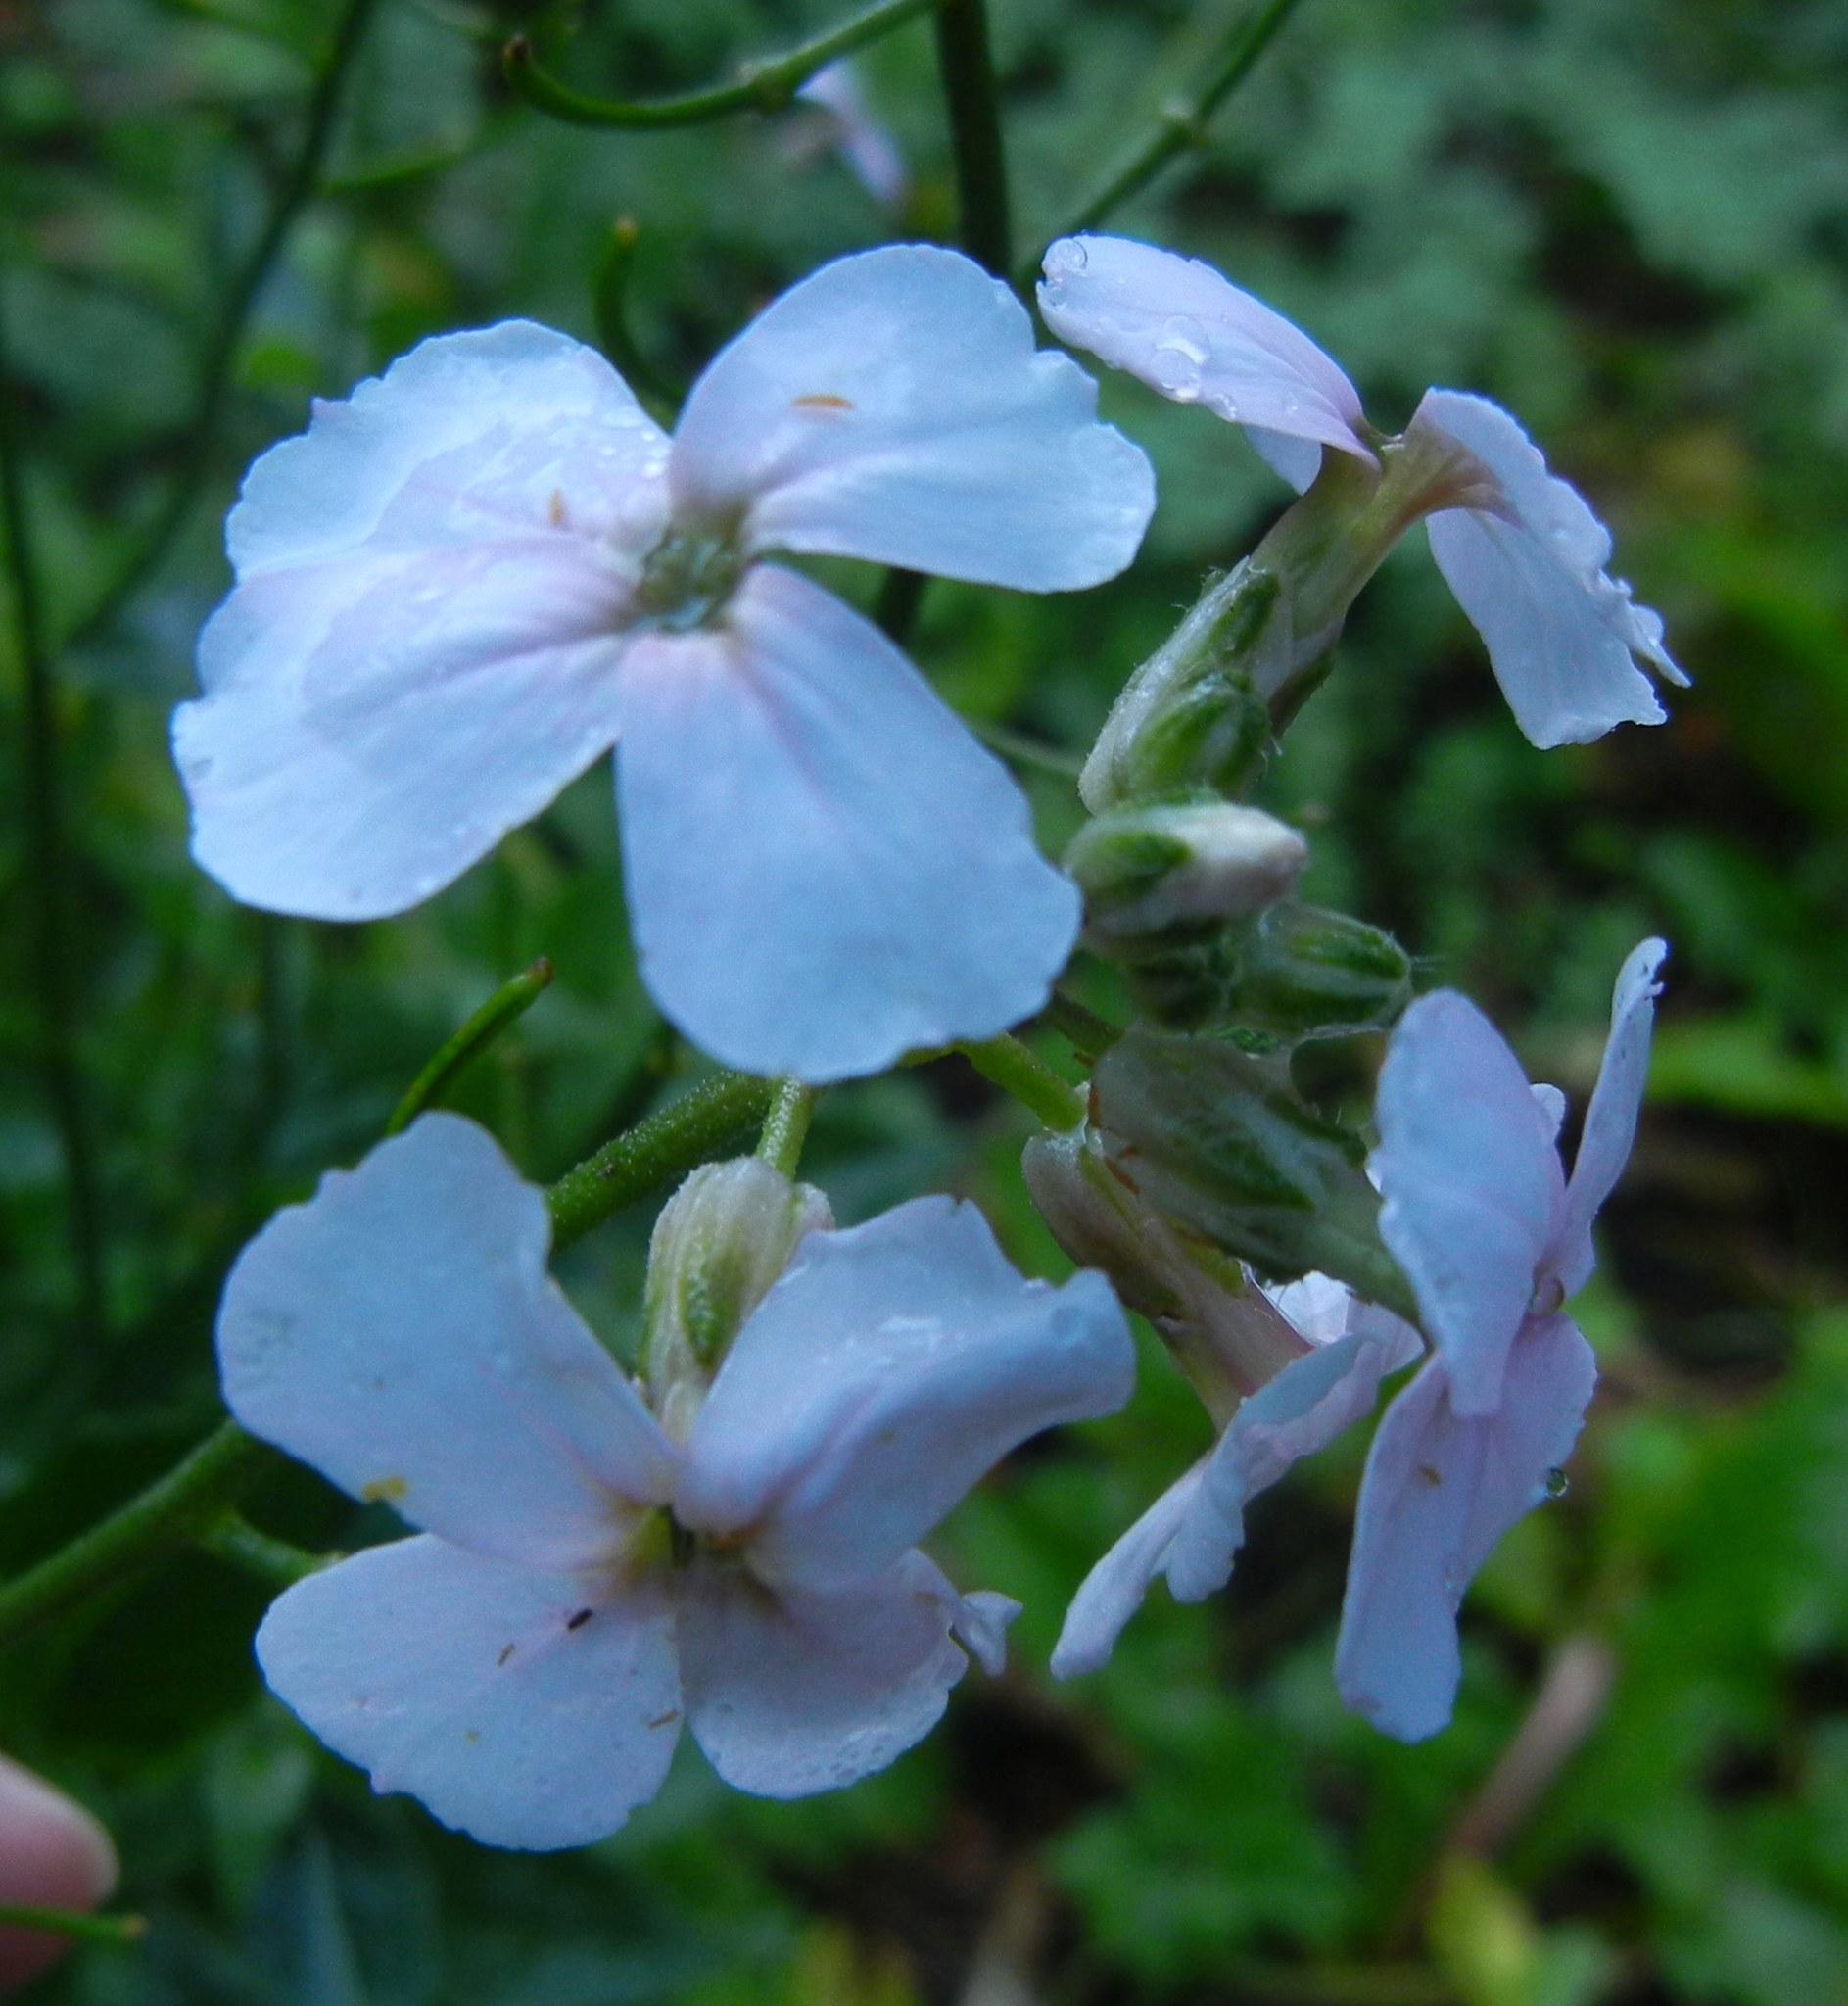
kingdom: Plantae
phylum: Tracheophyta
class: Magnoliopsida
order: Brassicales
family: Brassicaceae
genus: Hesperis
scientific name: Hesperis matronalis
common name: Dame's-violet
